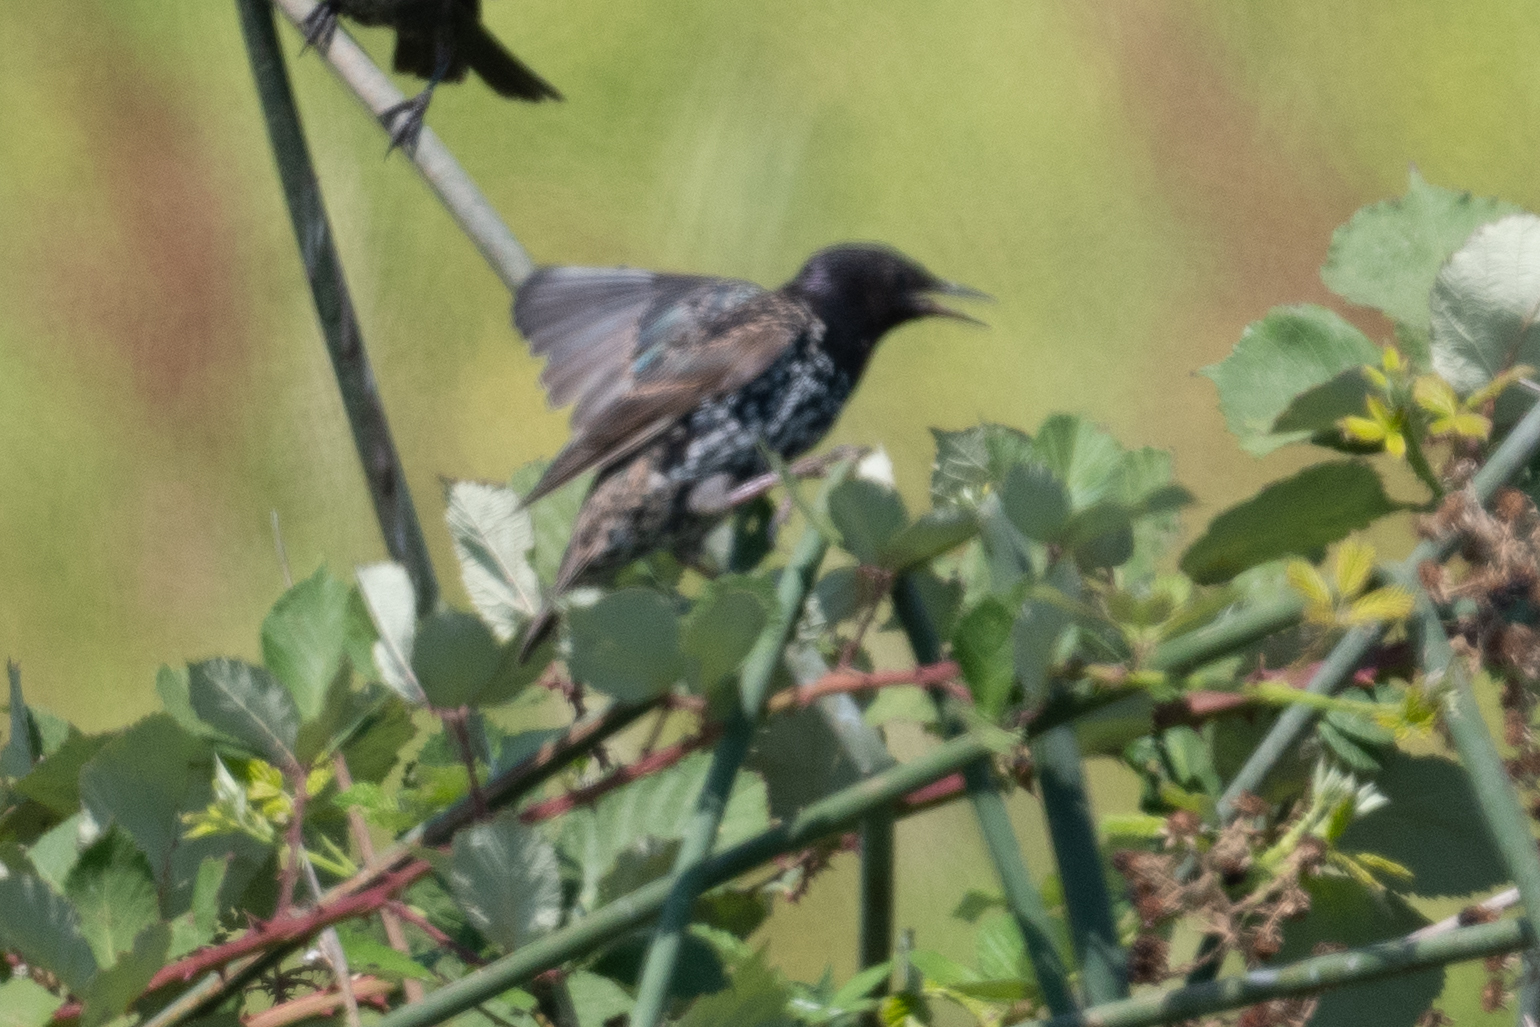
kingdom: Animalia
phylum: Chordata
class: Aves
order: Passeriformes
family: Sturnidae
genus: Sturnus
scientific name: Sturnus vulgaris
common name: Common starling
